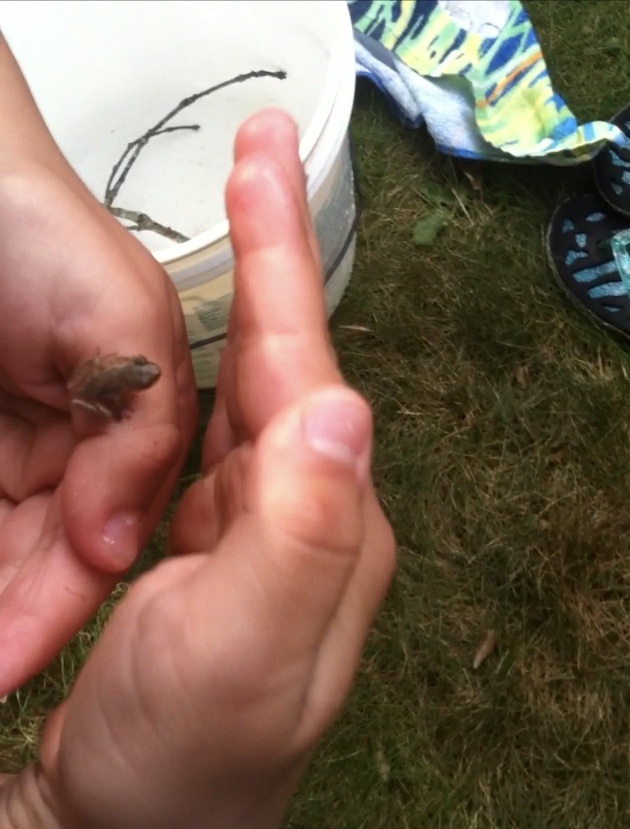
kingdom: Animalia
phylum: Chordata
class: Amphibia
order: Anura
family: Hylidae
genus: Pseudacris
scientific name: Pseudacris crucifer
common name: Spring peeper
